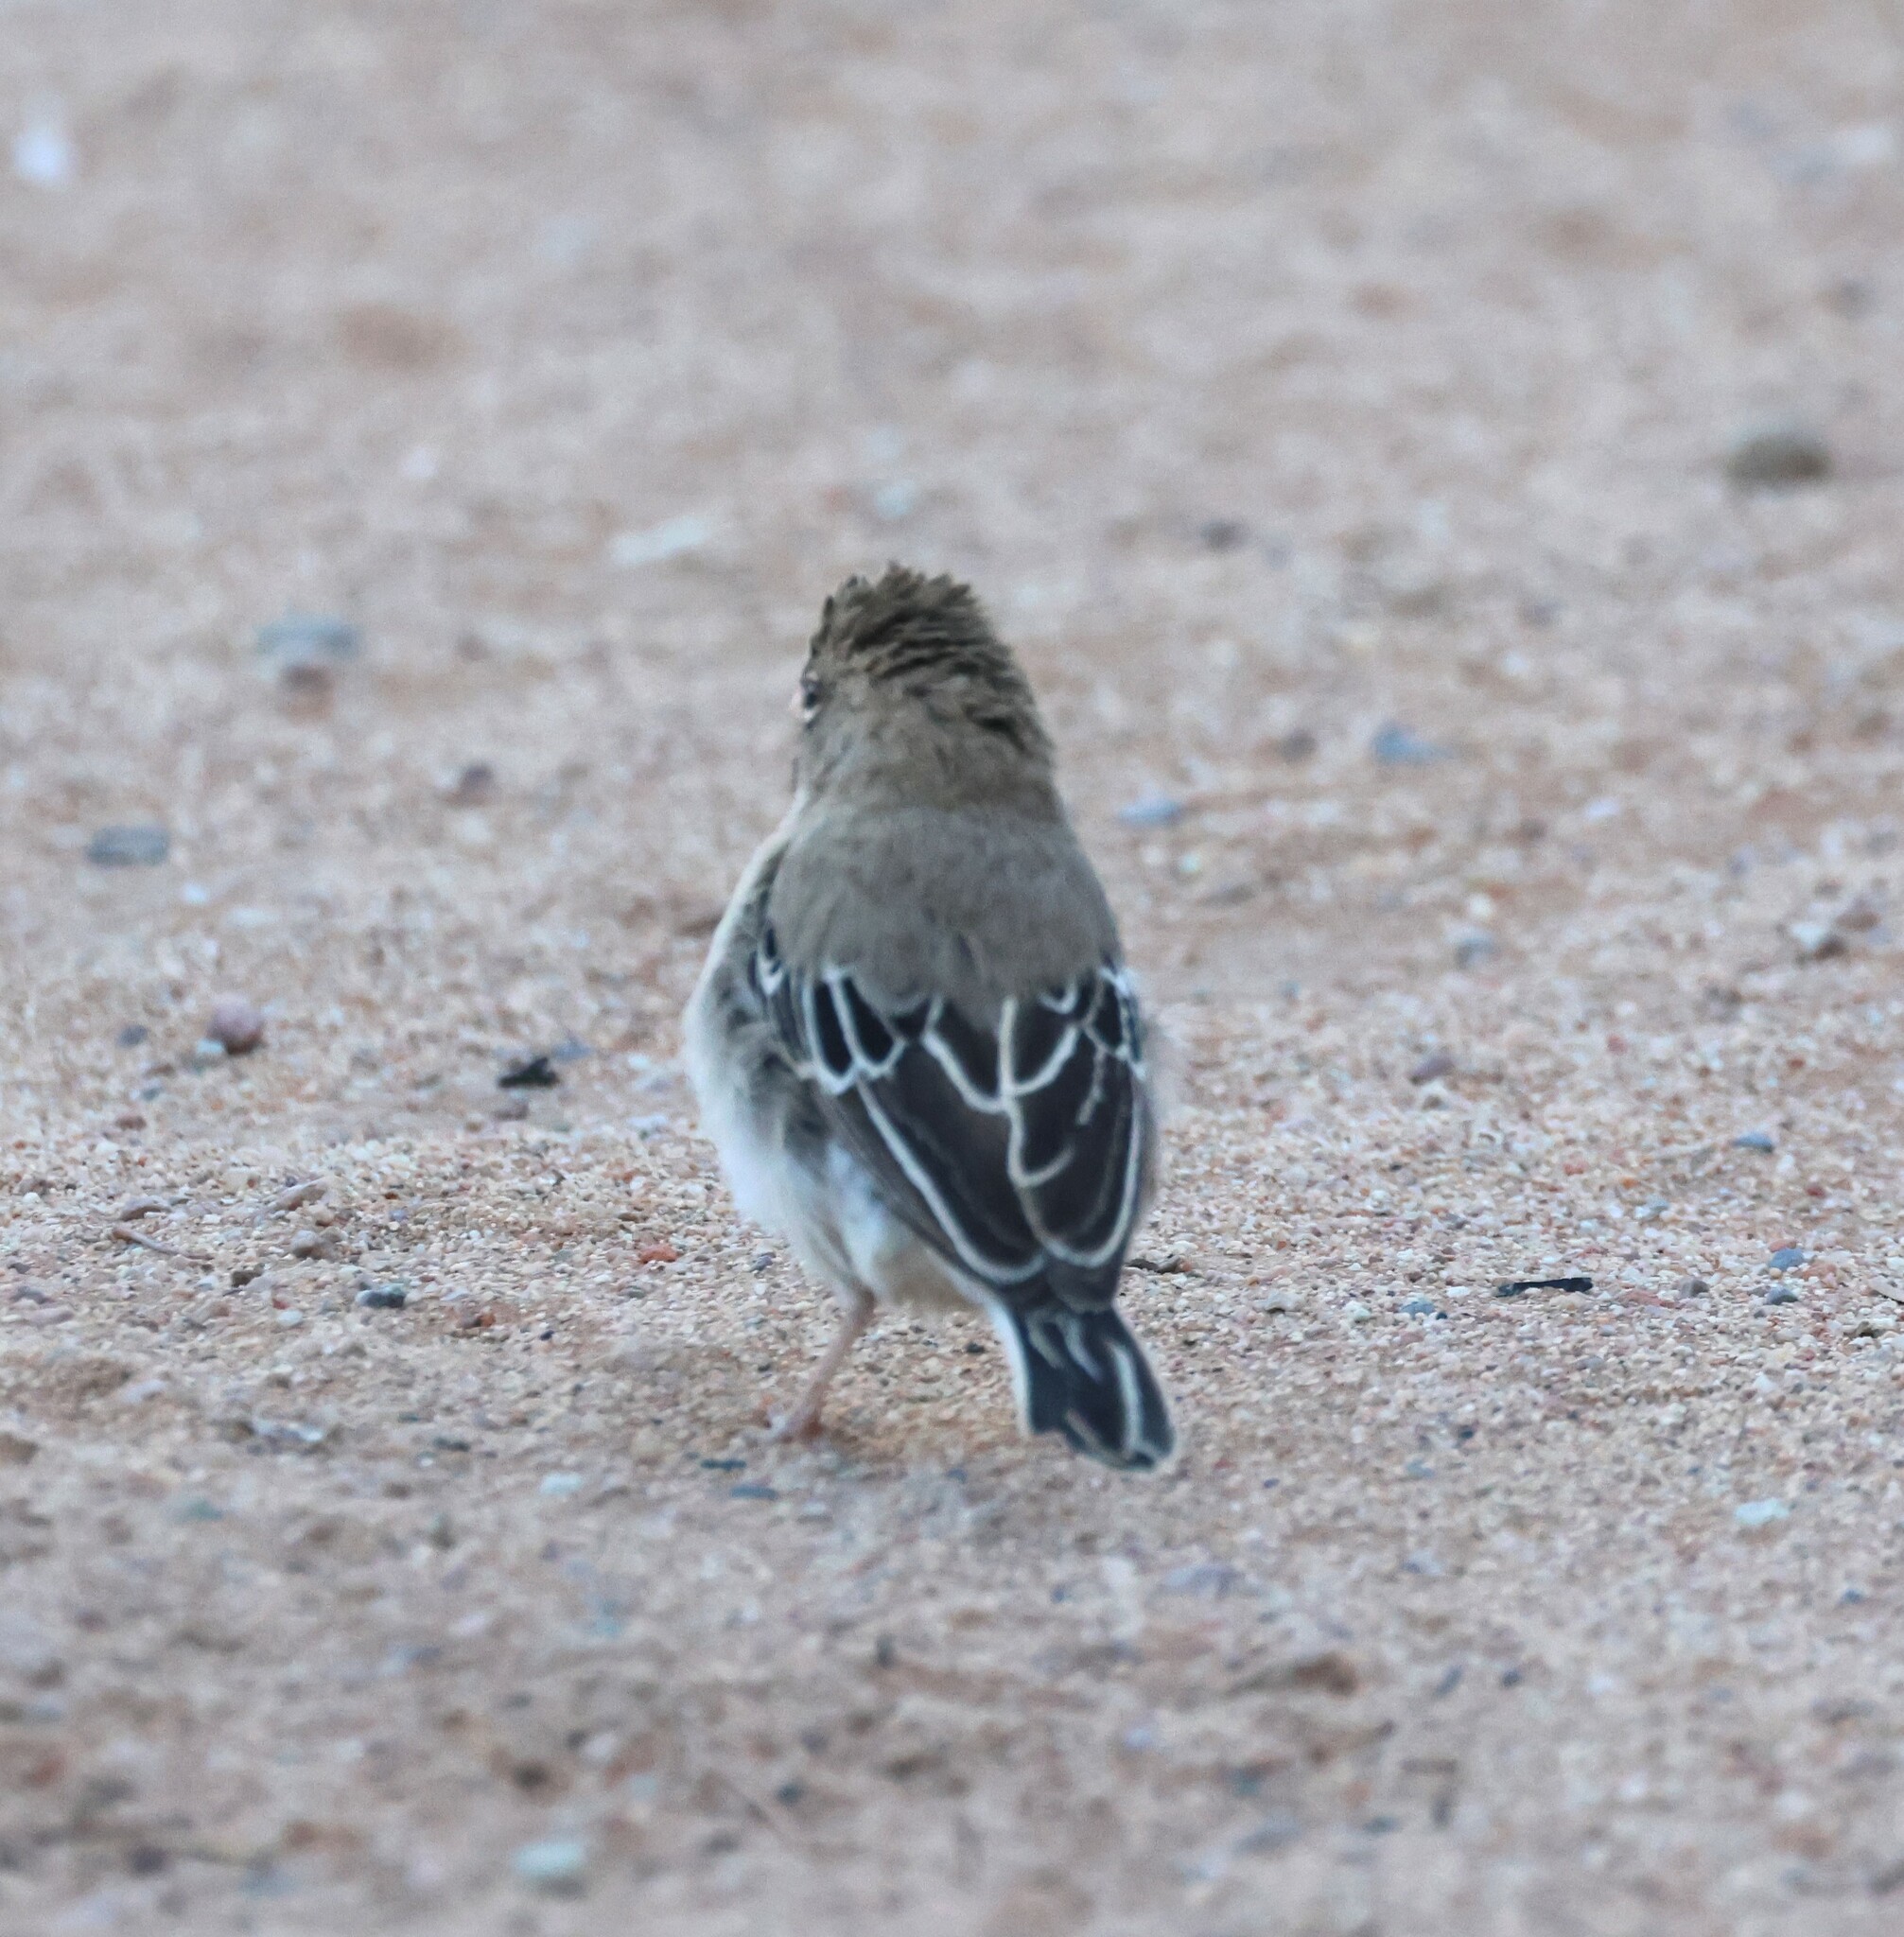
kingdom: Animalia
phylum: Chordata
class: Aves
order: Passeriformes
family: Ploceidae
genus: Sporopipes
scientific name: Sporopipes squamifrons
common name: Scaly-feathered weaver
